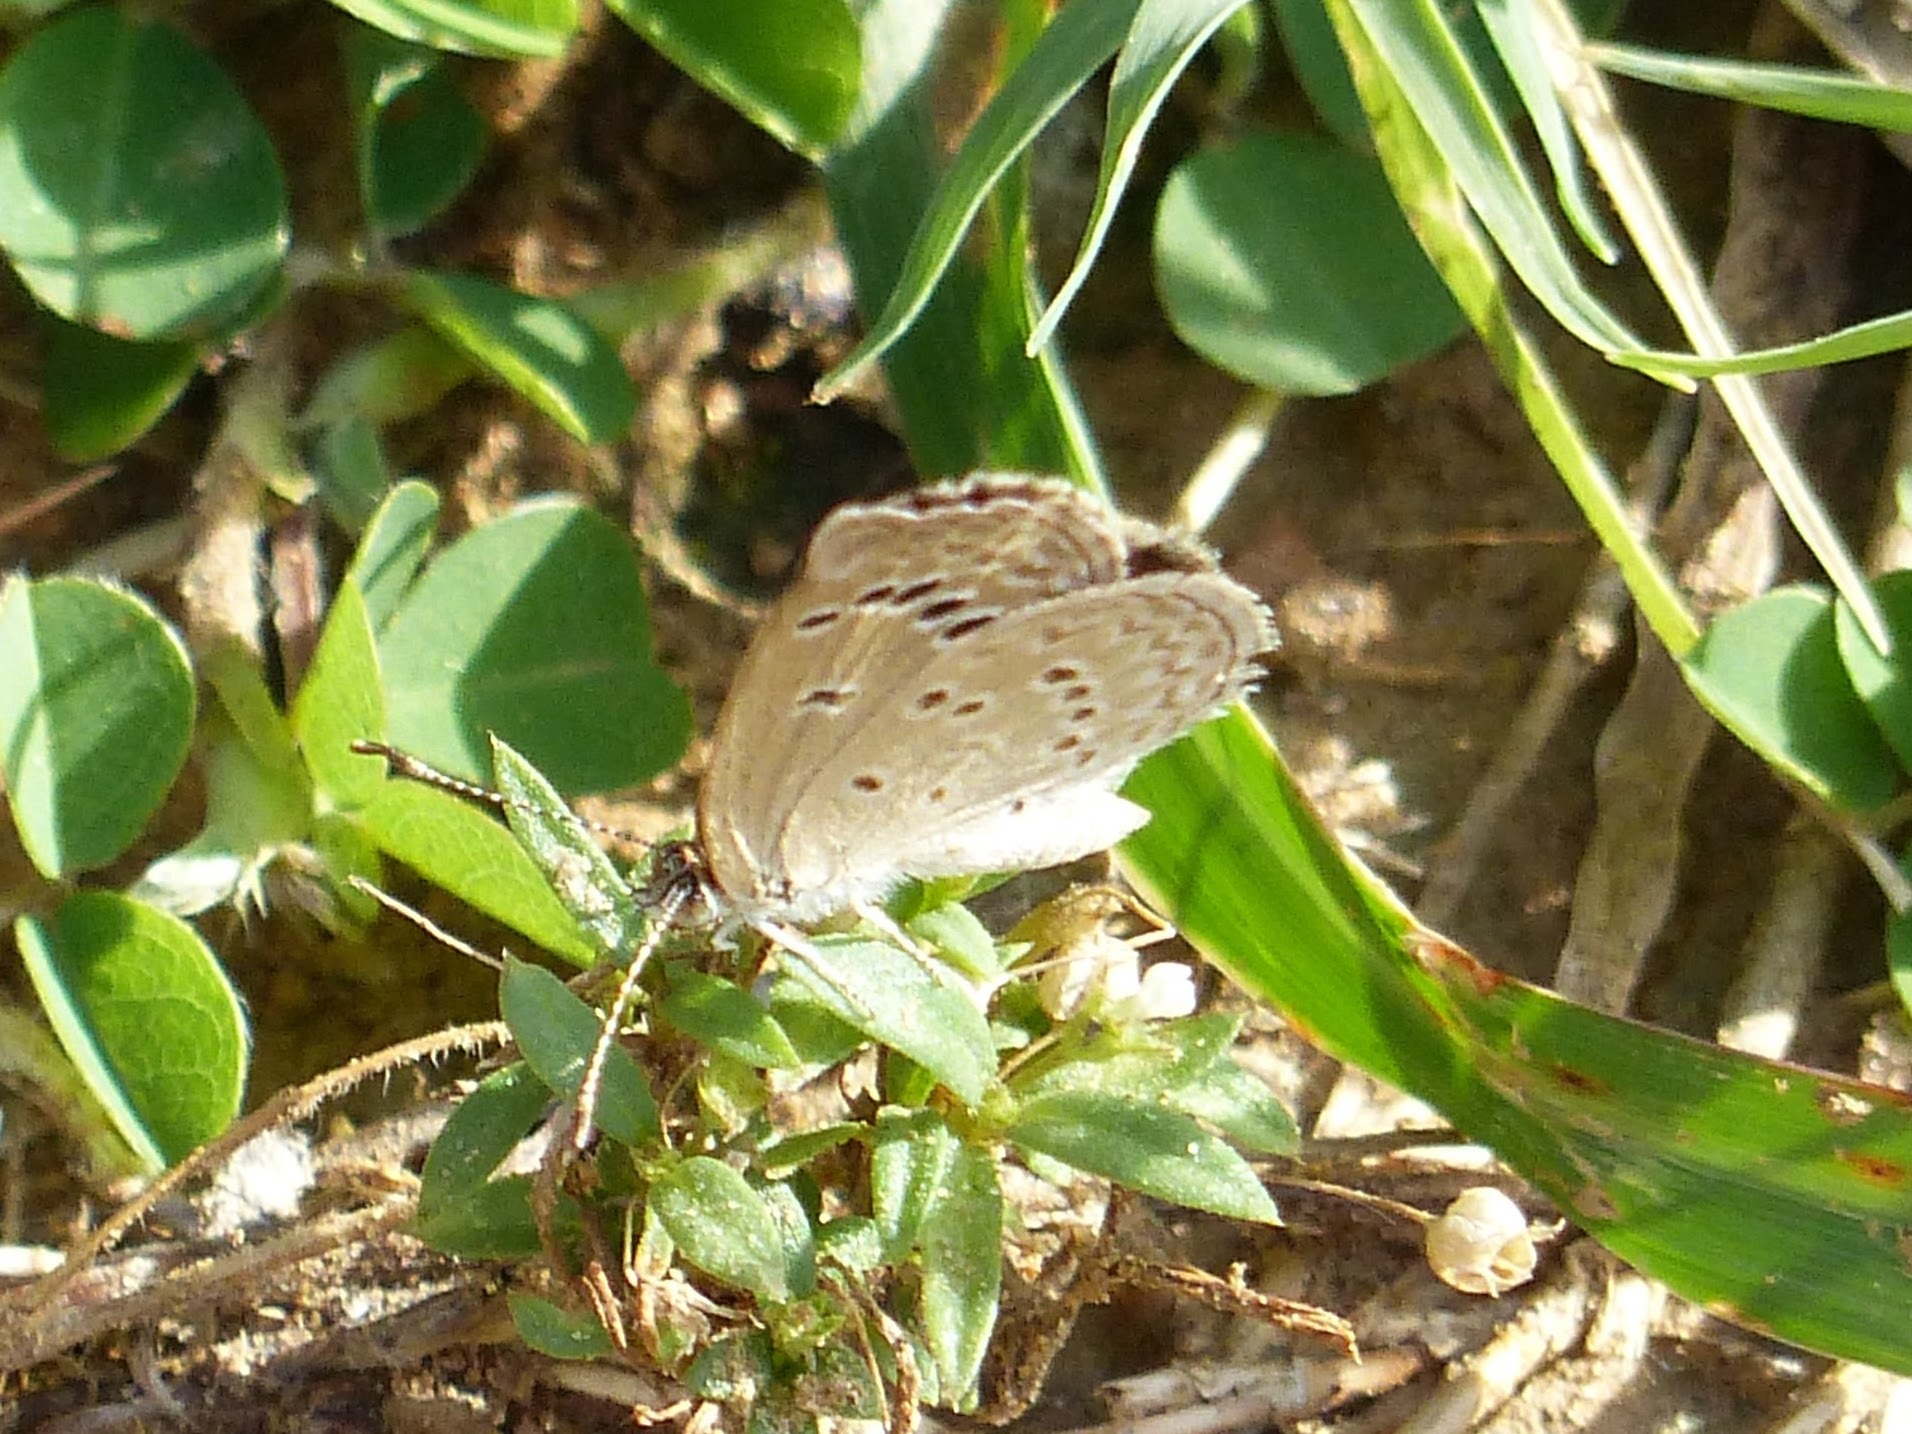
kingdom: Animalia
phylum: Arthropoda
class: Insecta
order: Lepidoptera
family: Lycaenidae
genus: Zizina
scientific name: Zizina otis
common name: Lesser grass blue
